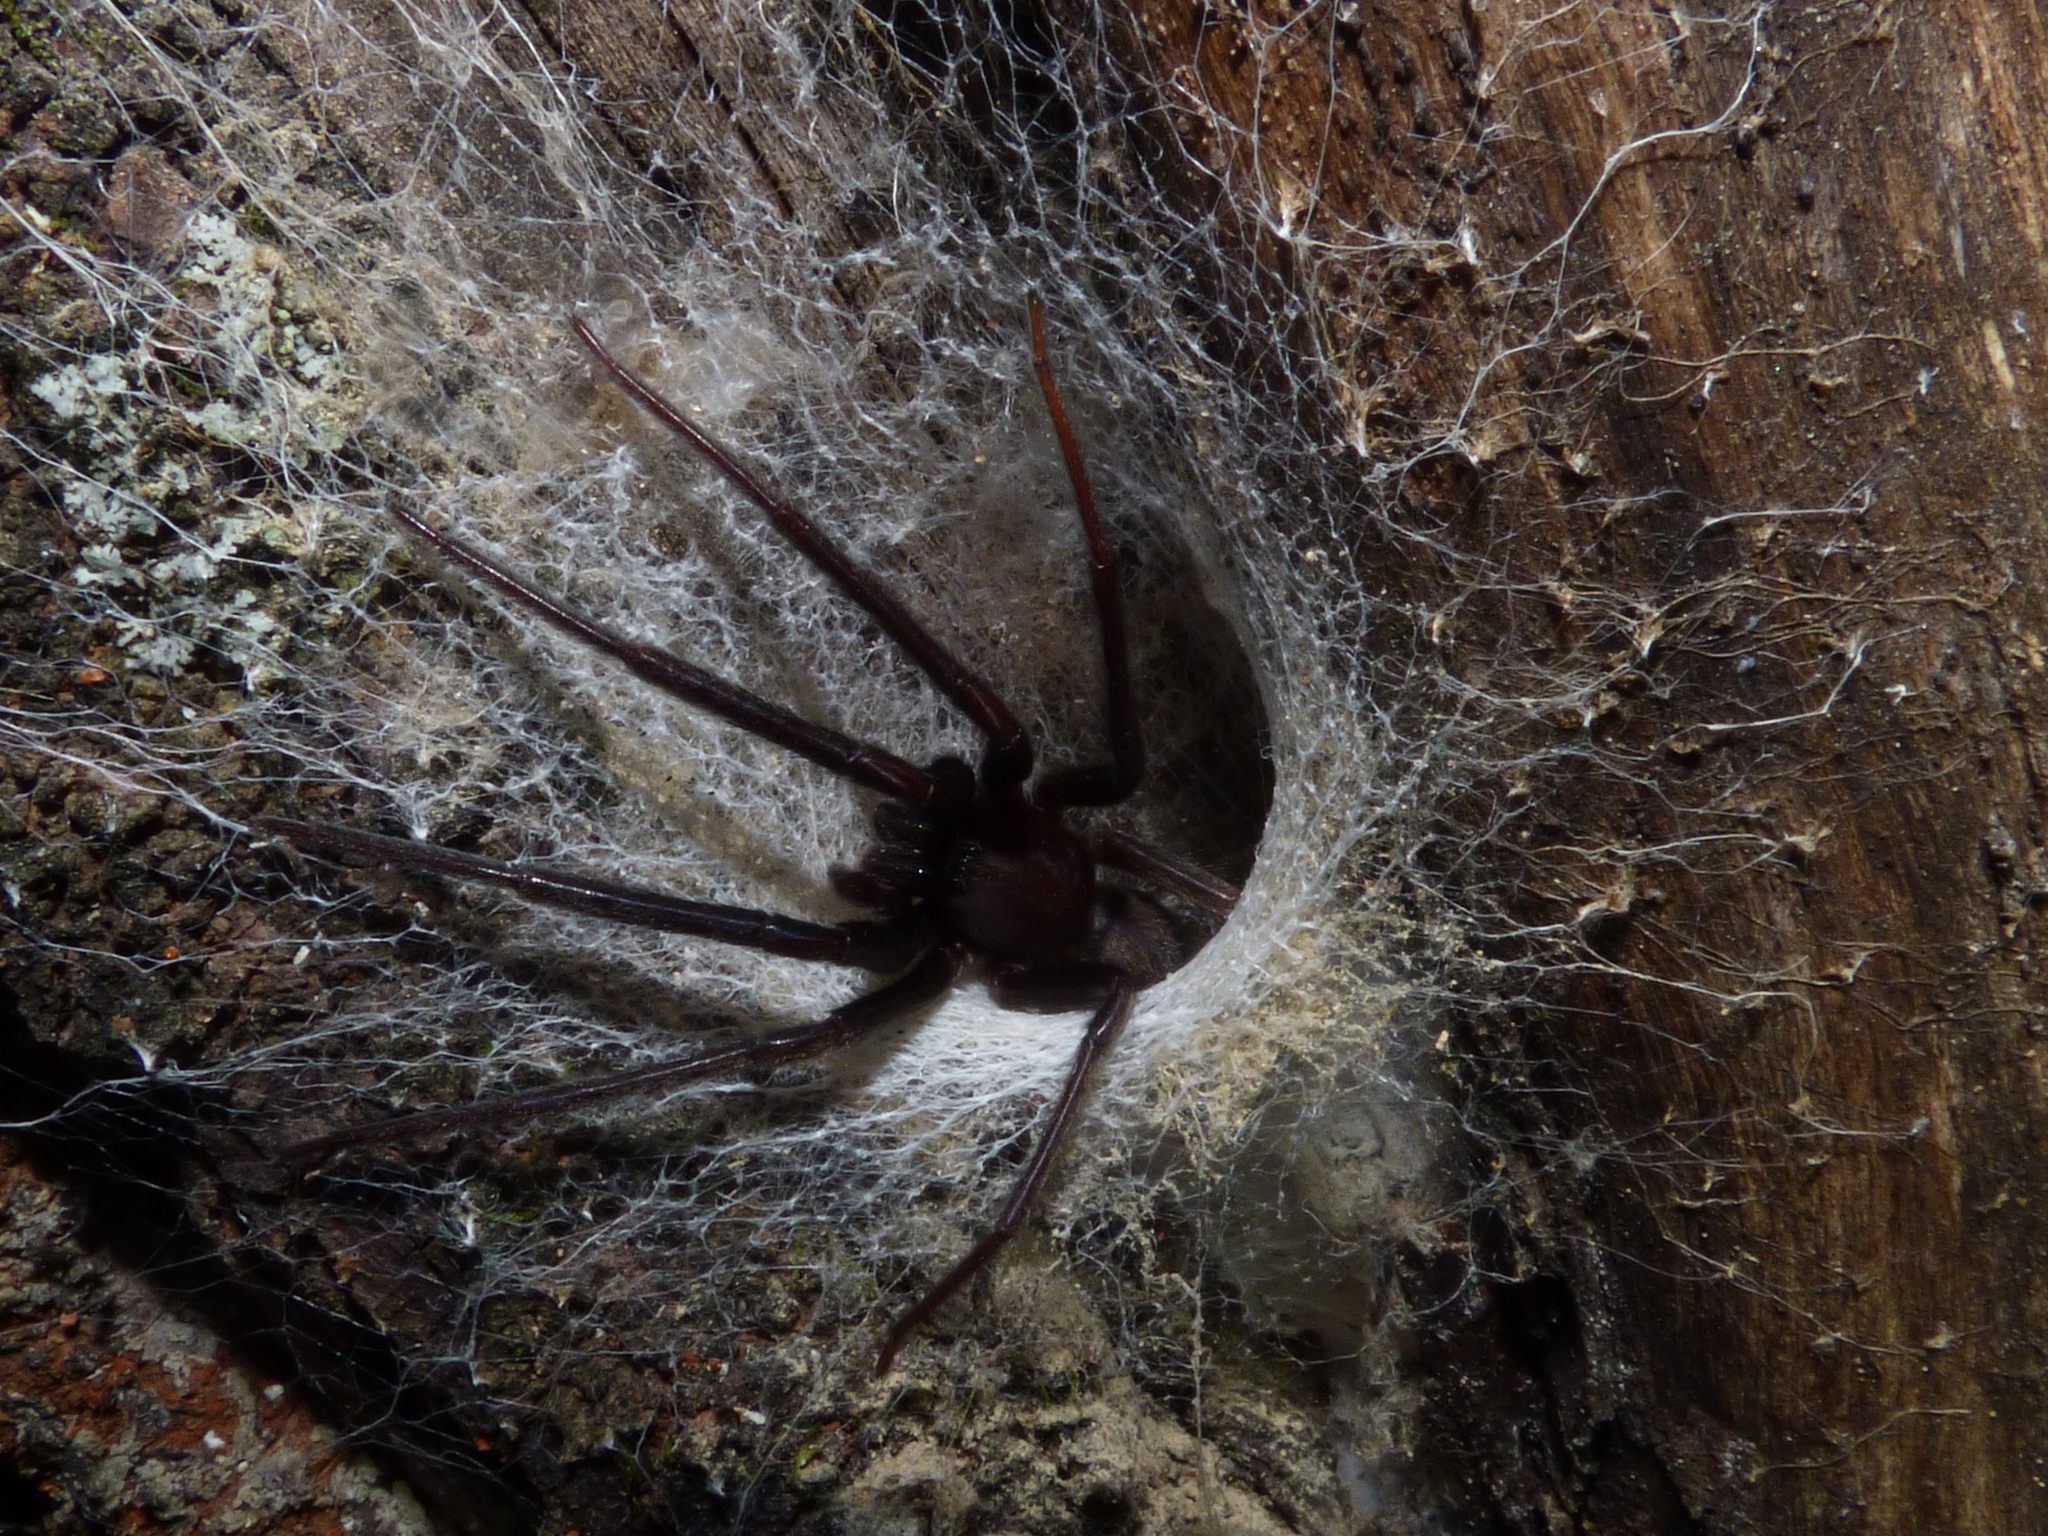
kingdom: Animalia
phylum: Arthropoda
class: Arachnida
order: Araneae
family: Segestriidae
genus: Segestria
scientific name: Segestria florentina
